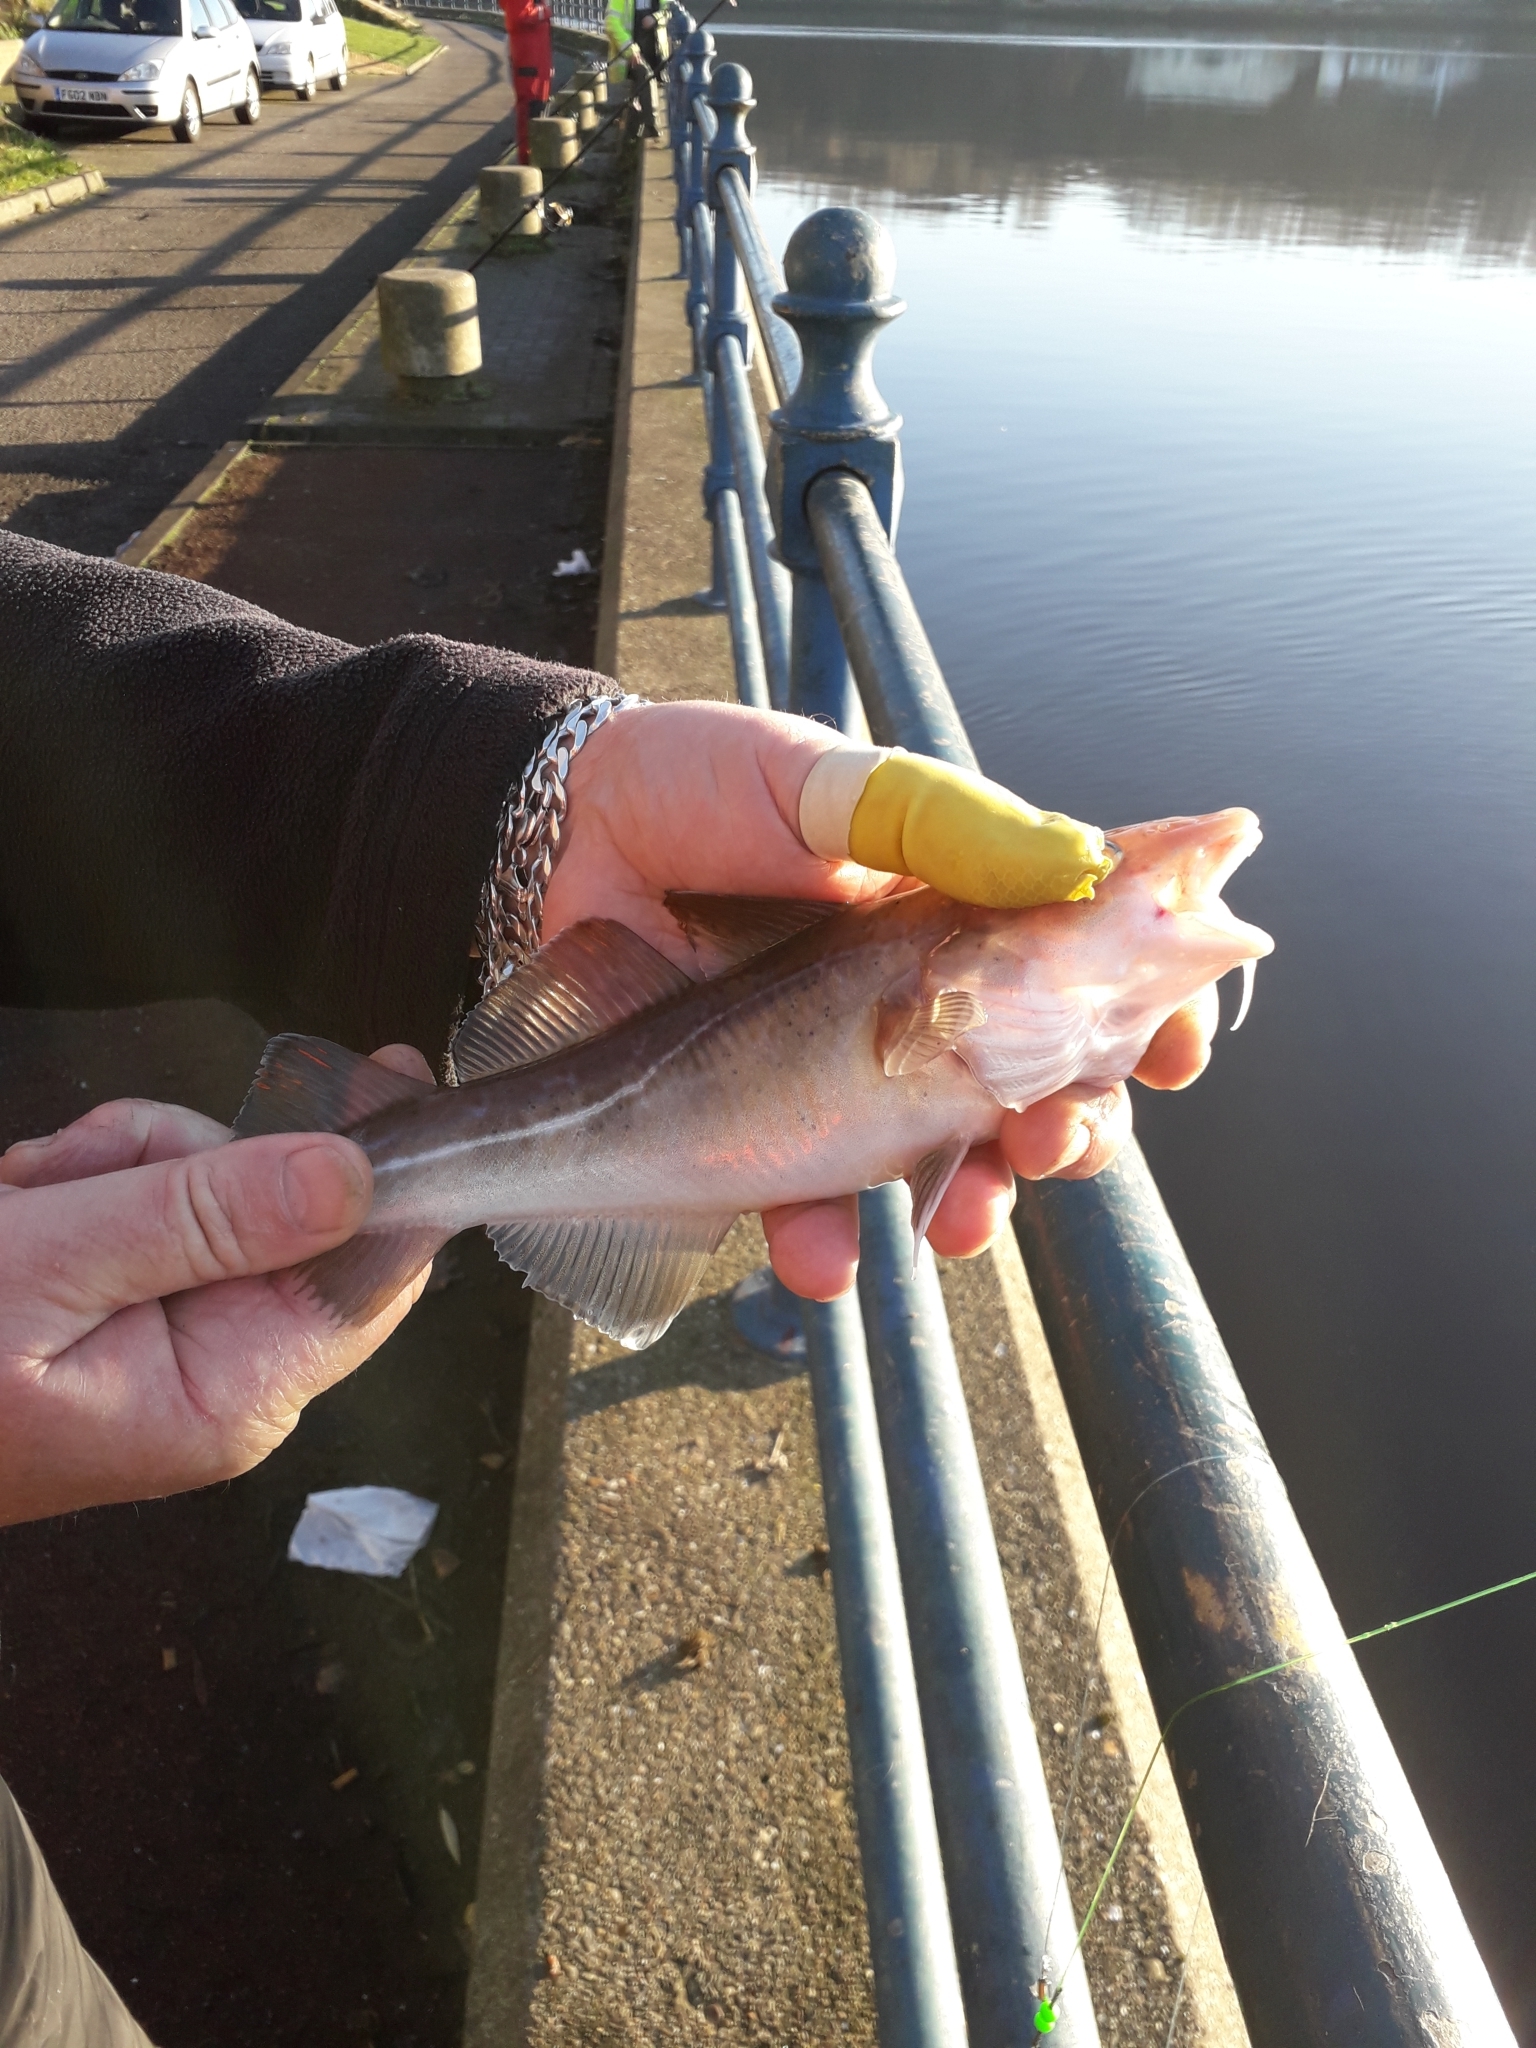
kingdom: Animalia
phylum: Chordata
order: Gadiformes
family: Gadidae
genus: Gadus
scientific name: Gadus morhua
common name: Atlantic cod
